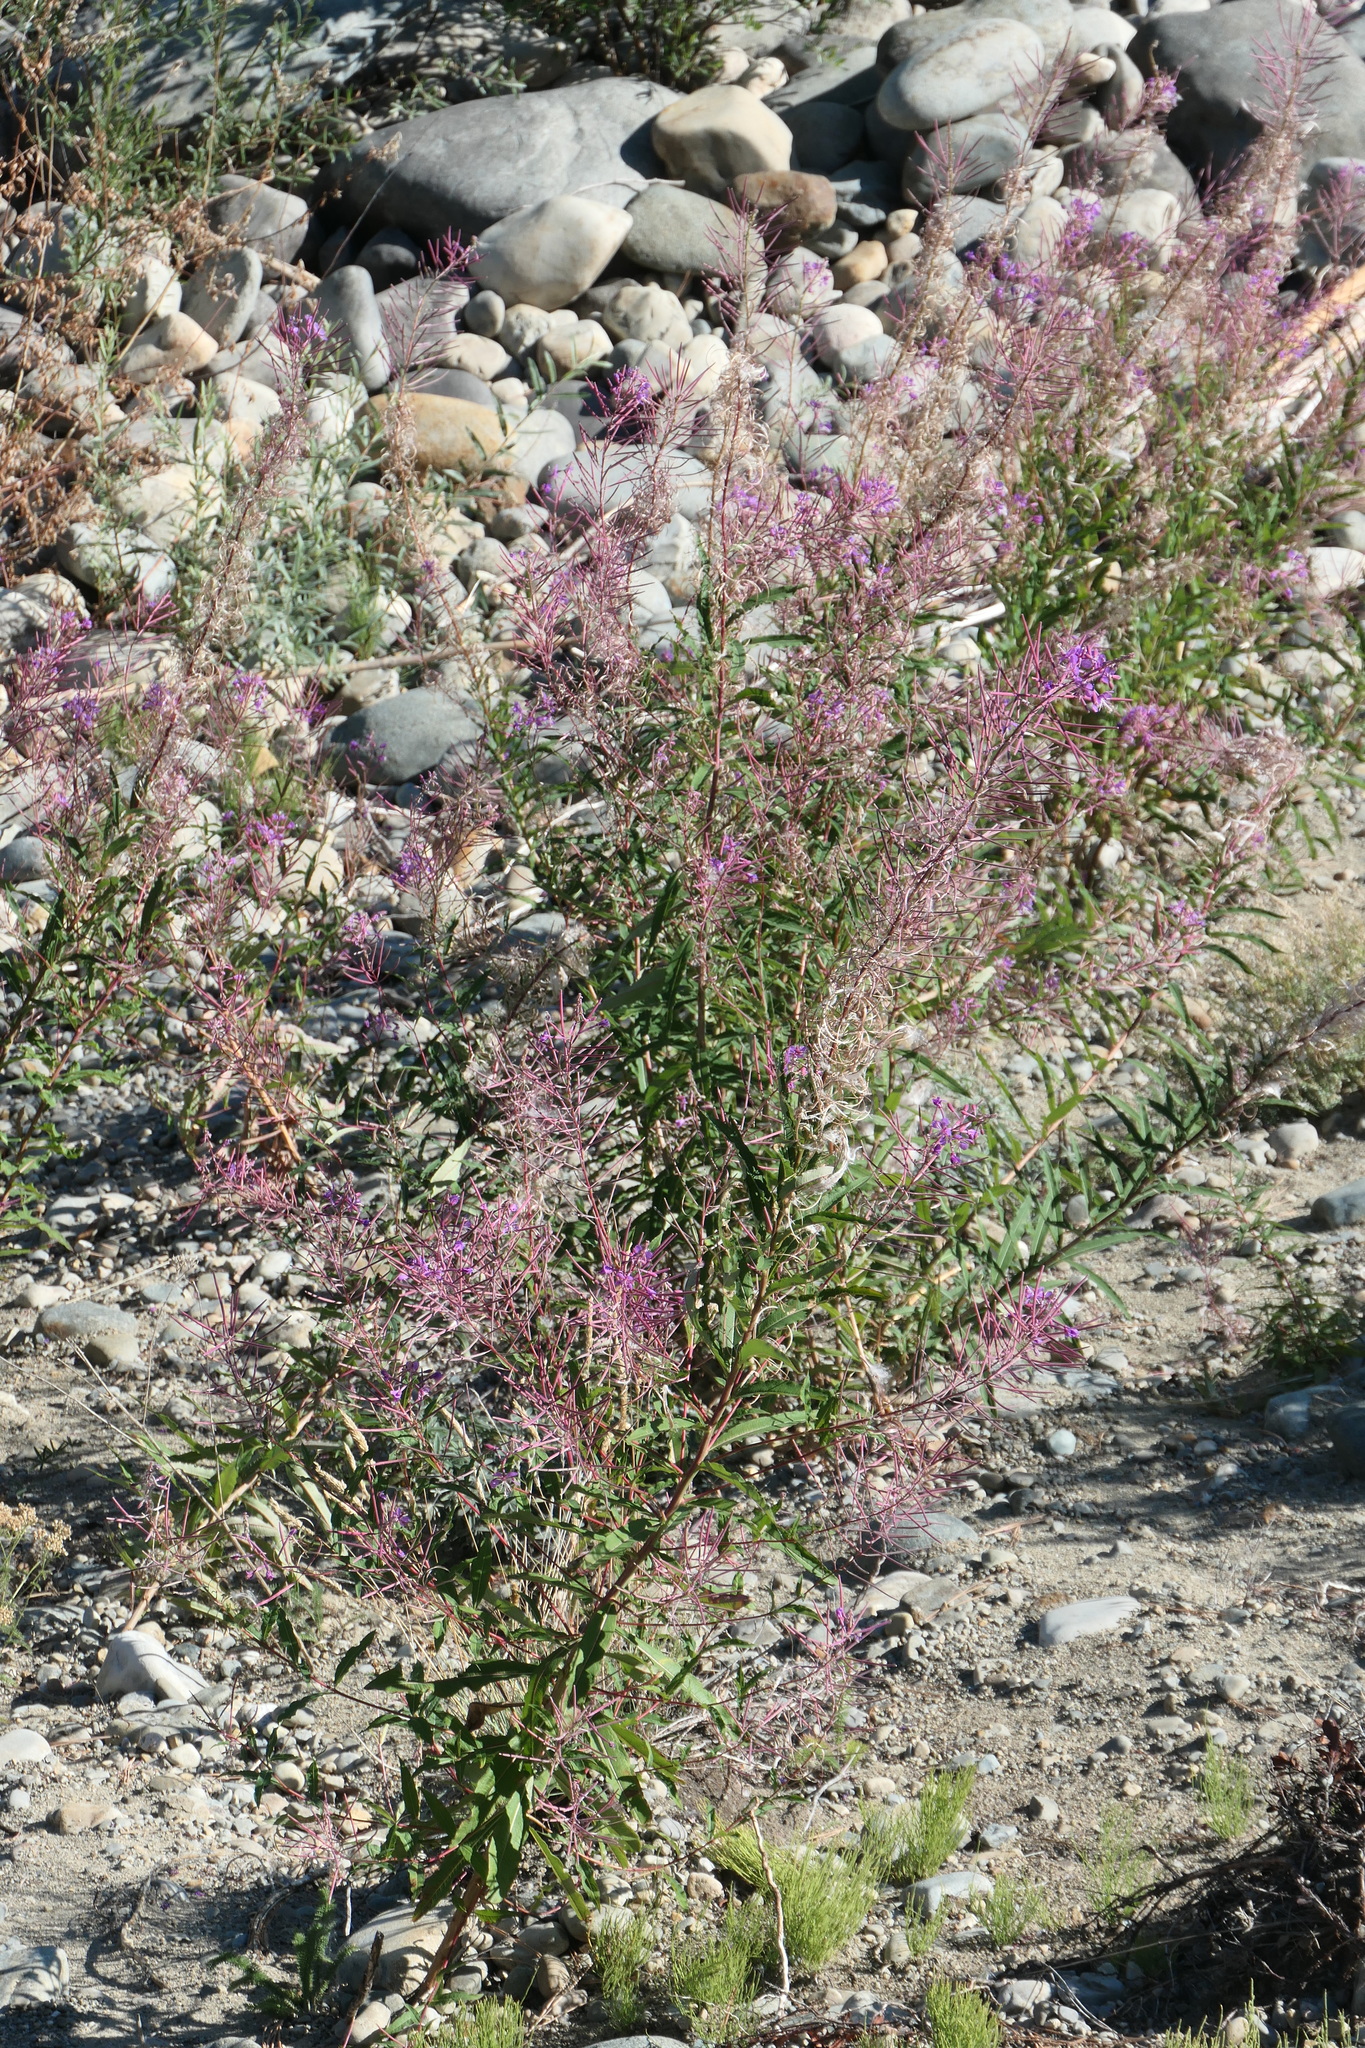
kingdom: Plantae
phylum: Tracheophyta
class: Magnoliopsida
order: Myrtales
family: Onagraceae
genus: Chamaenerion
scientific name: Chamaenerion angustifolium
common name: Fireweed
